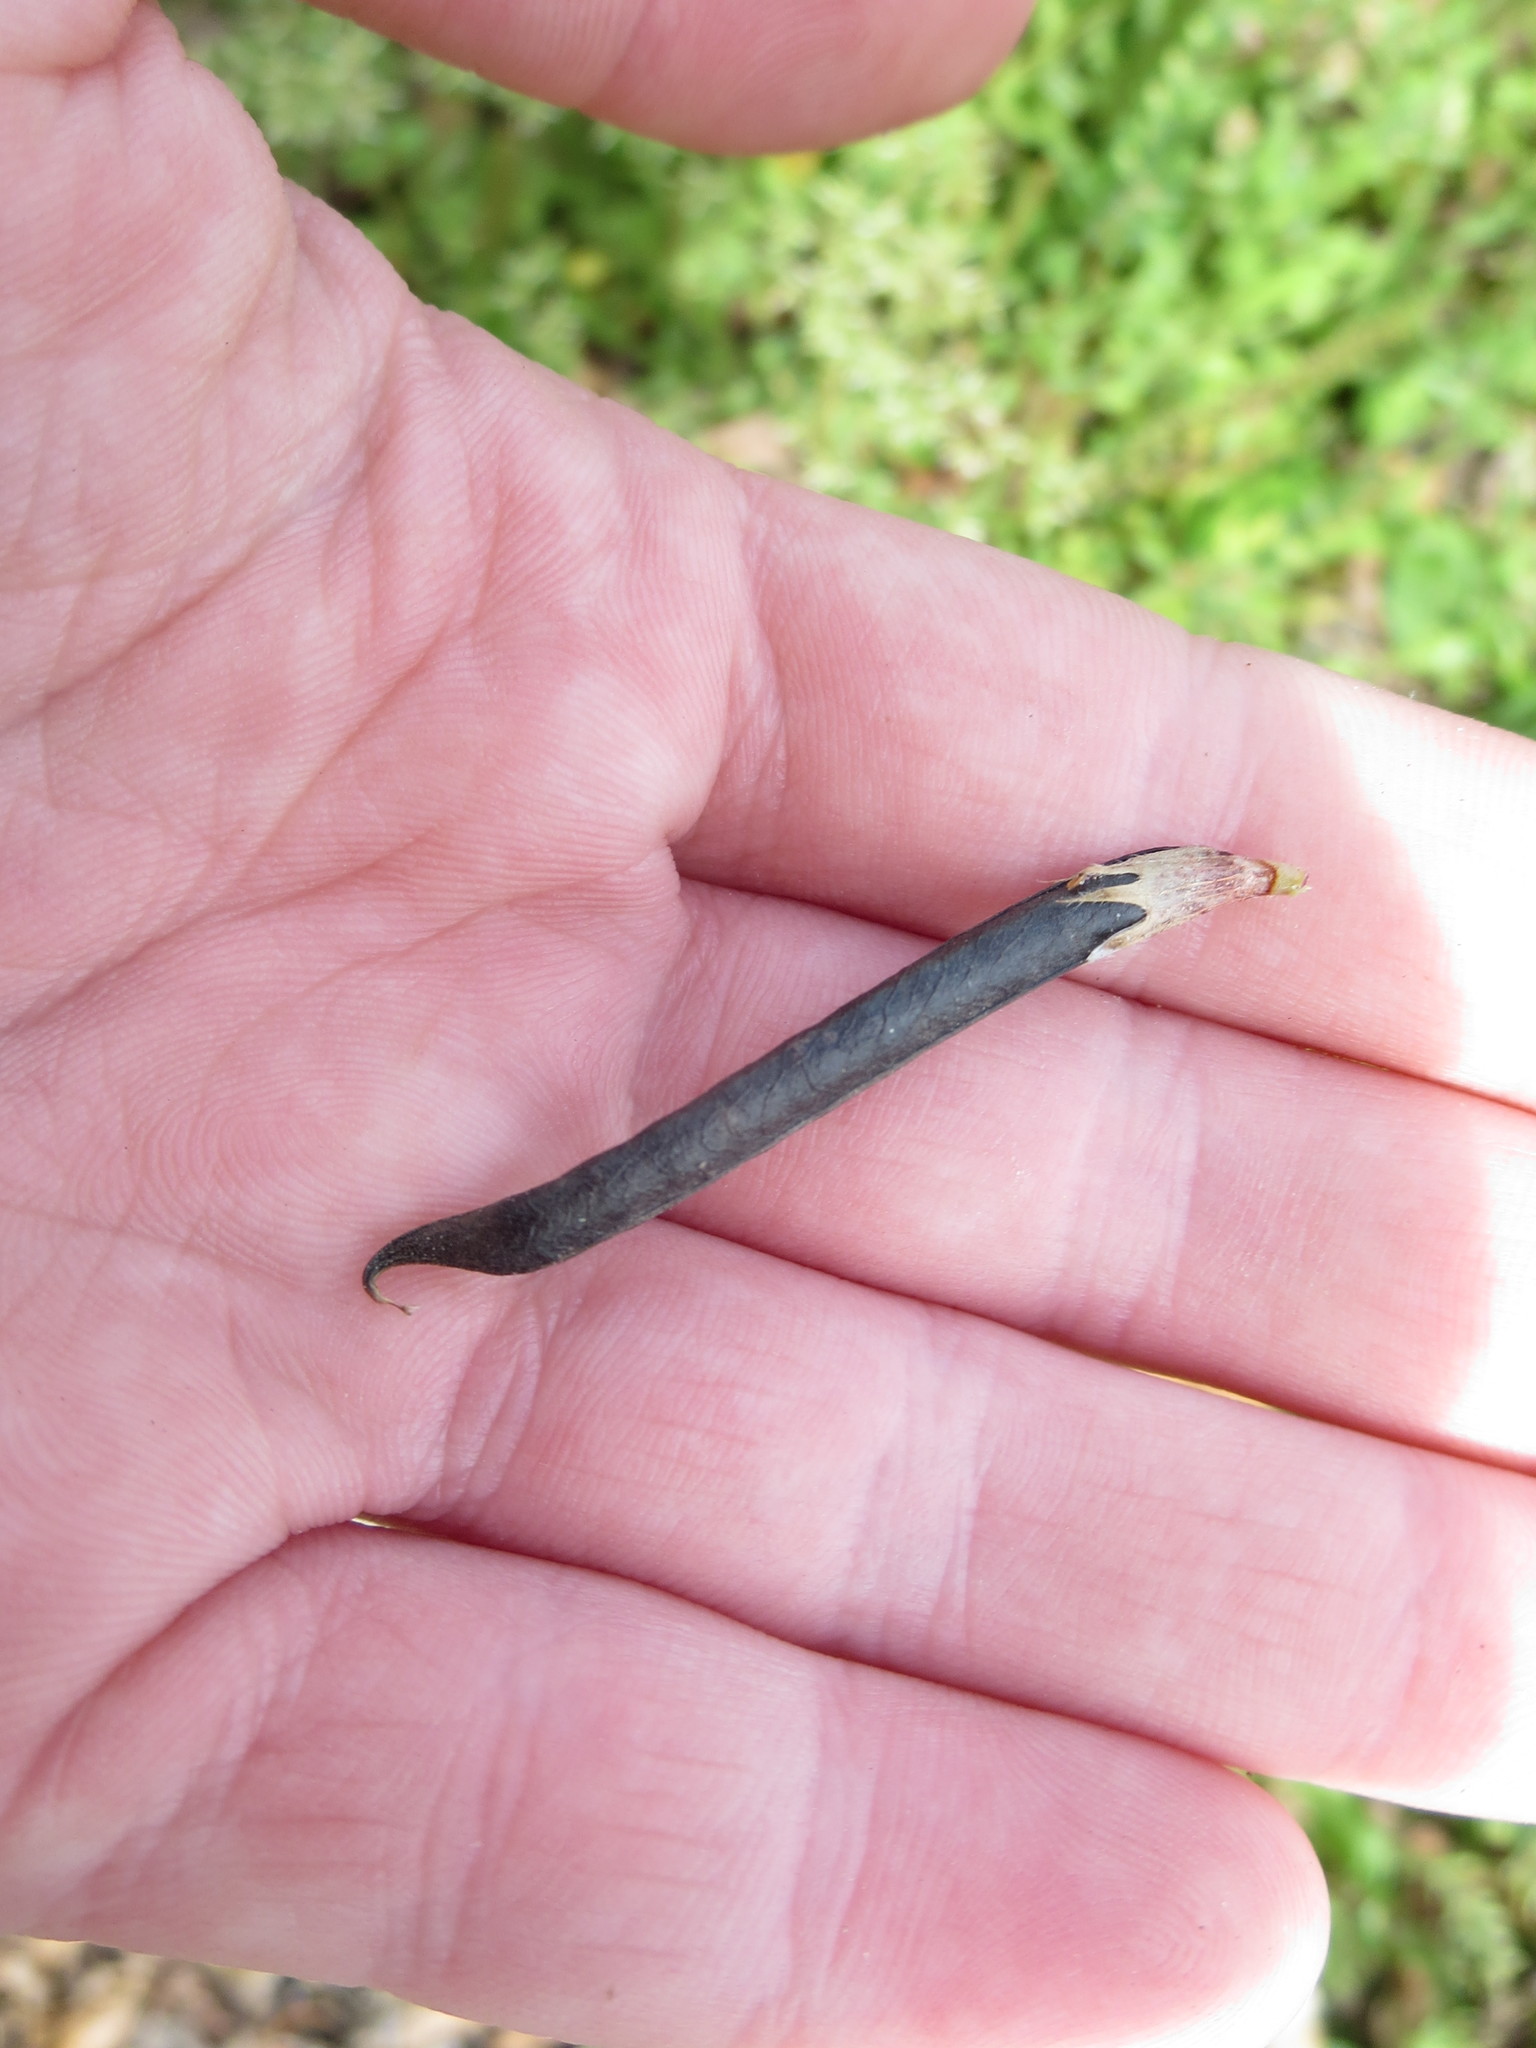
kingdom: Plantae
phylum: Tracheophyta
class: Magnoliopsida
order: Fabales
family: Fabaceae
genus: Vicia
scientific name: Vicia sativa
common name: Garden vetch
